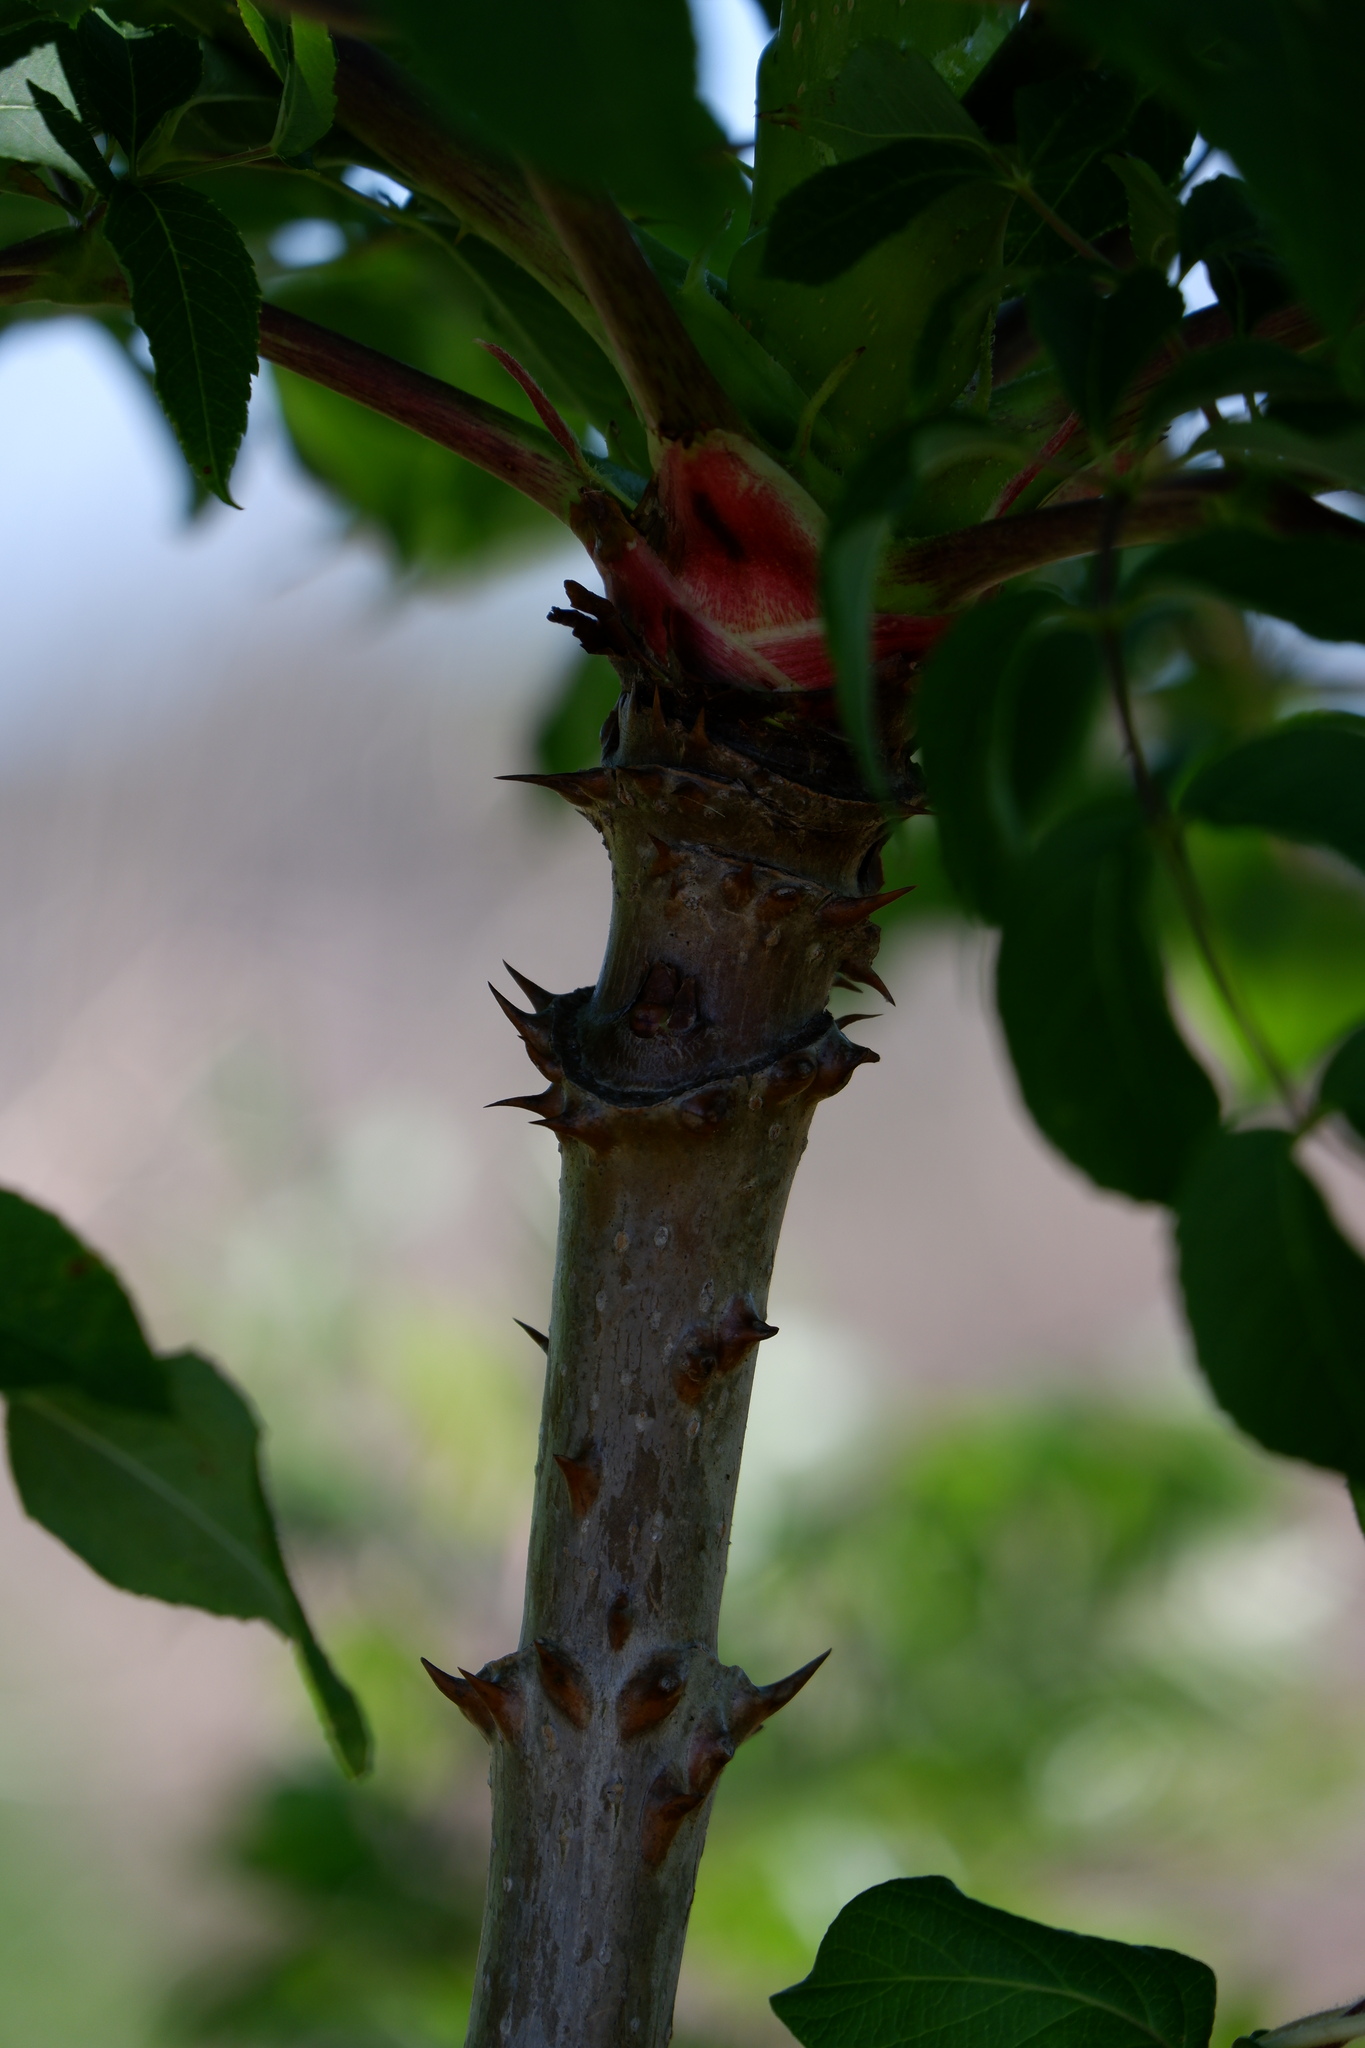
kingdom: Plantae
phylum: Tracheophyta
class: Magnoliopsida
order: Apiales
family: Araliaceae
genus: Aralia
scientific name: Aralia spinosa
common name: Hercules'-club
